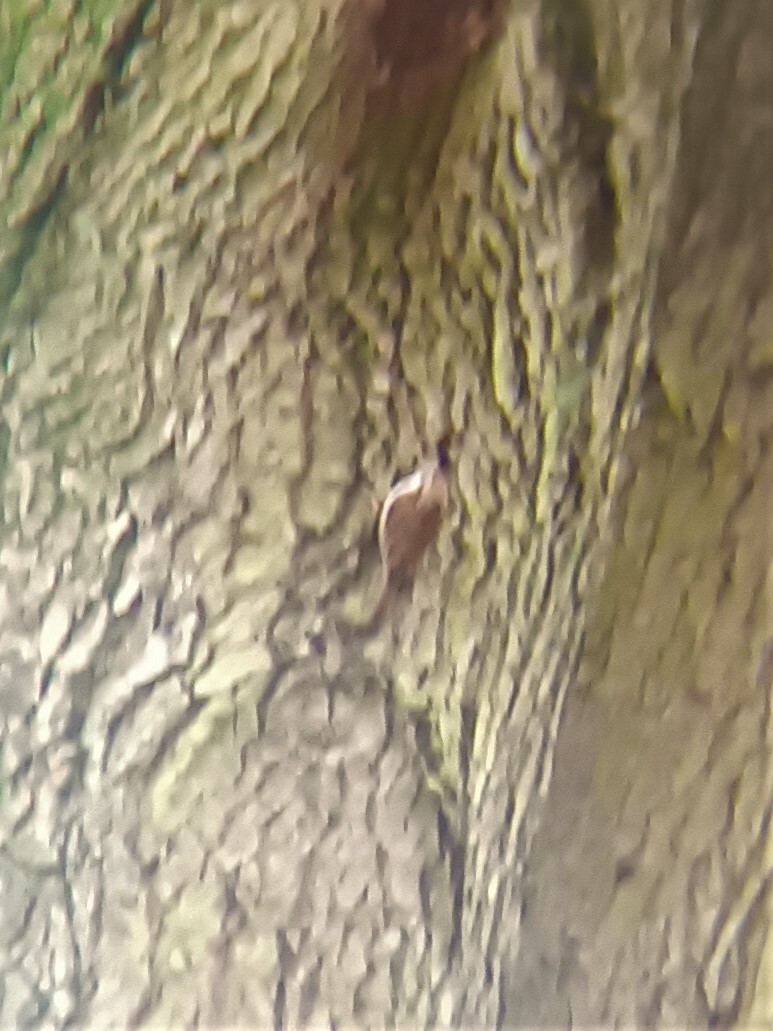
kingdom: Animalia
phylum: Chordata
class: Aves
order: Passeriformes
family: Certhiidae
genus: Certhia
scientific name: Certhia familiaris
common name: Eurasian treecreeper
